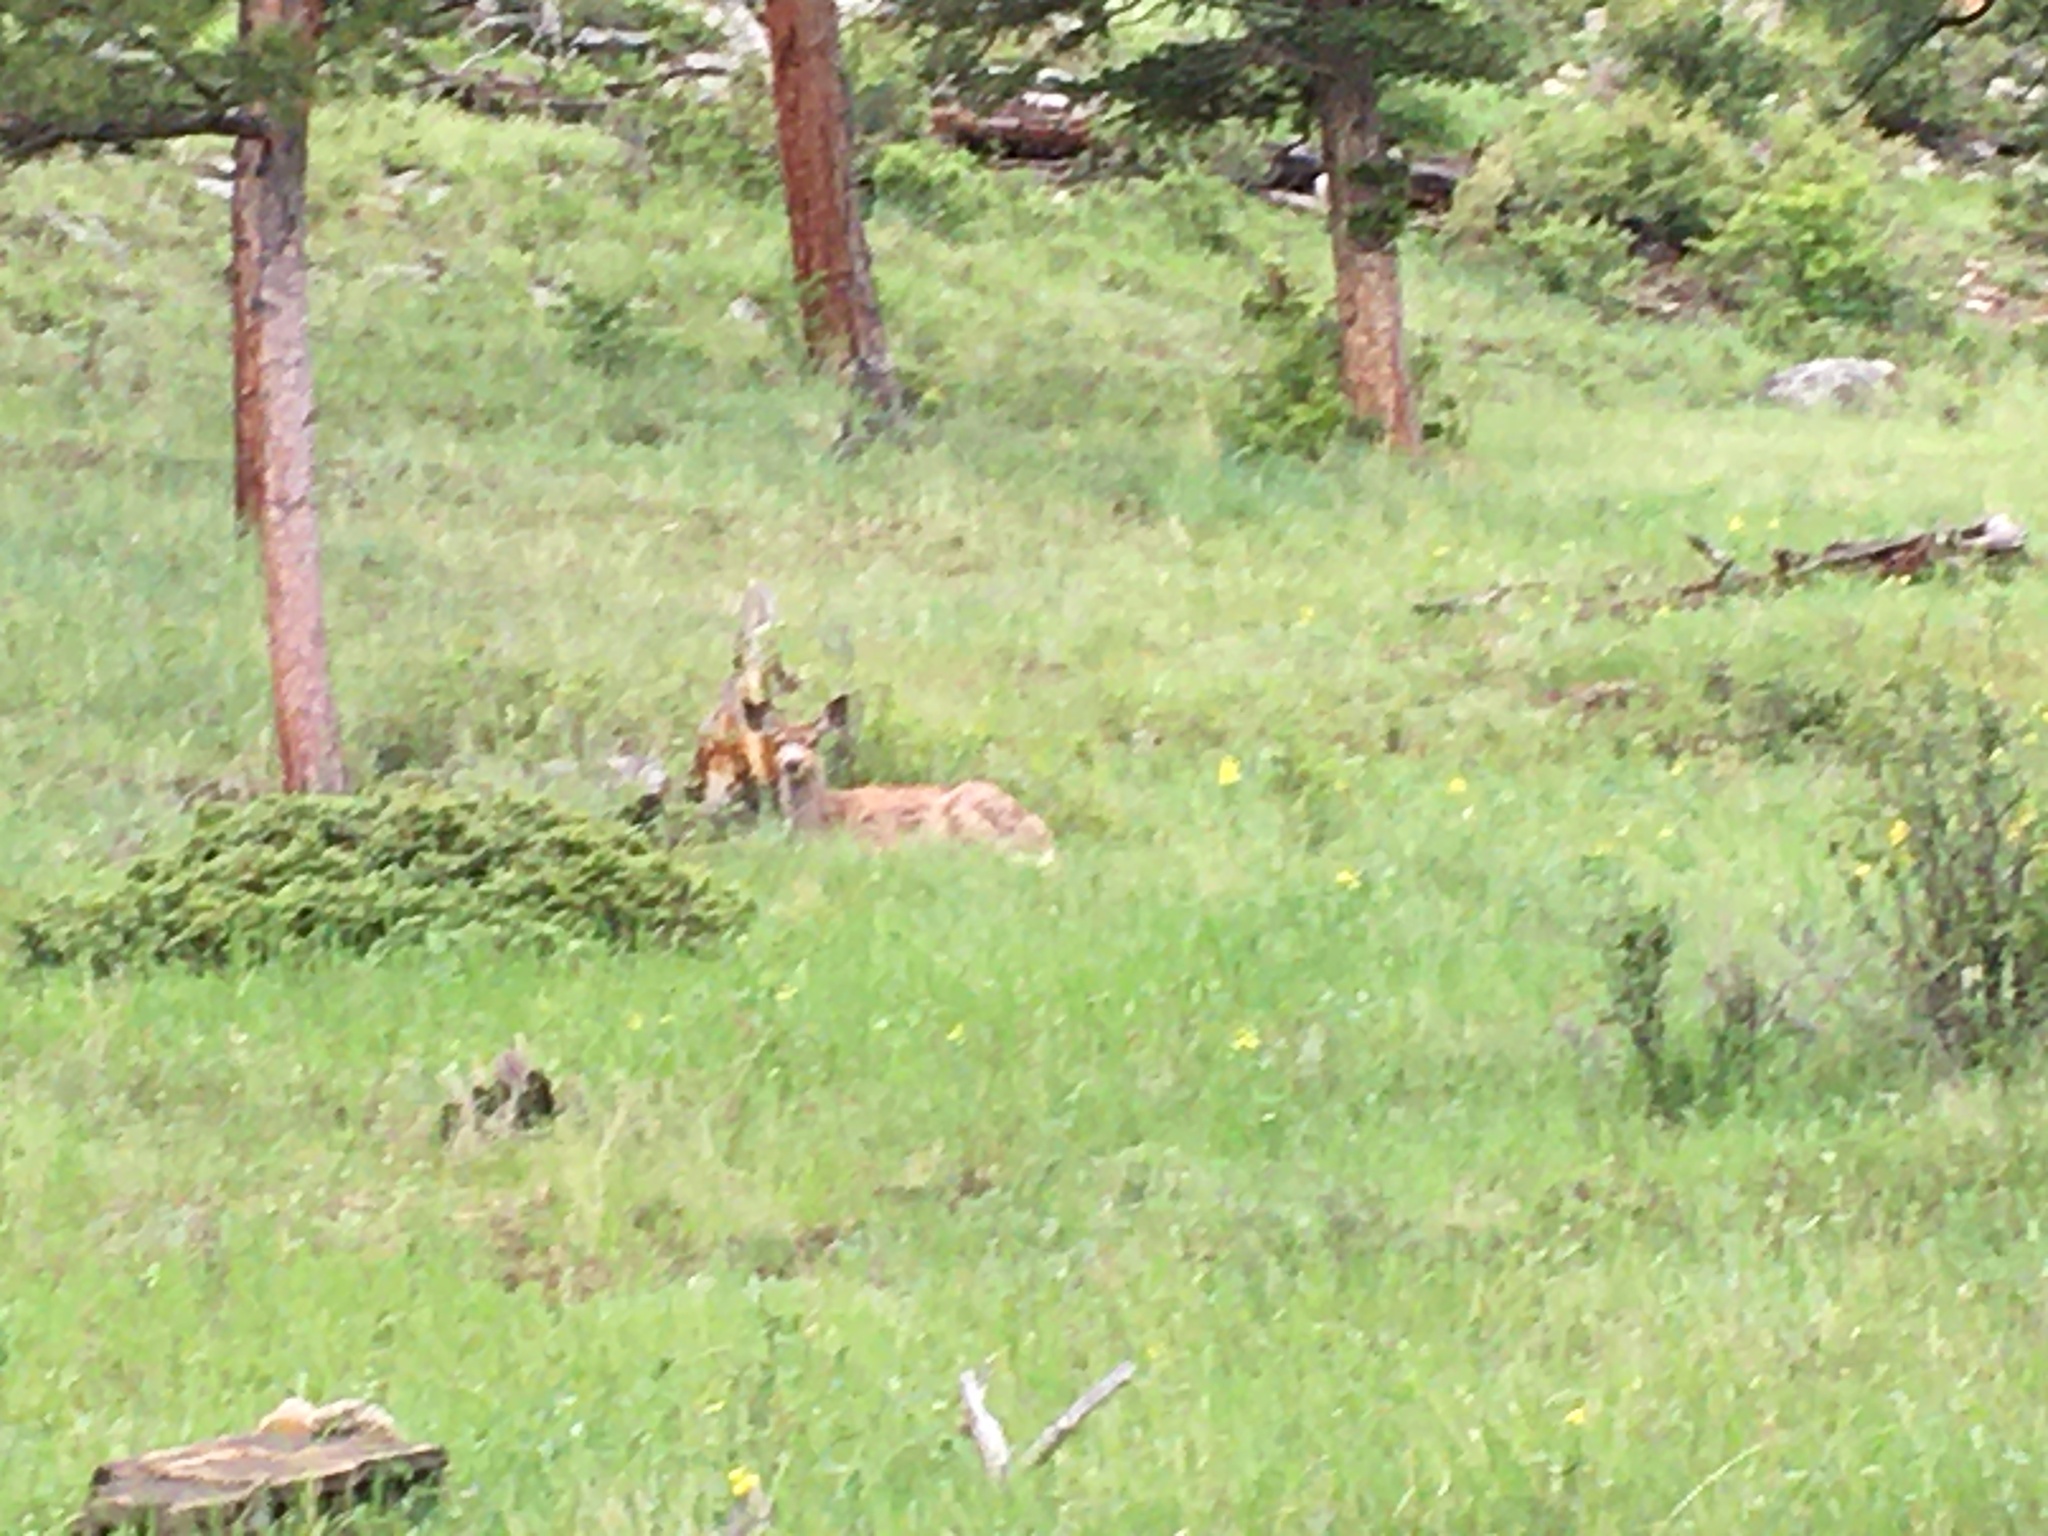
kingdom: Animalia
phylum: Chordata
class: Mammalia
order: Artiodactyla
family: Cervidae
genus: Odocoileus
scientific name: Odocoileus hemionus
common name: Mule deer
